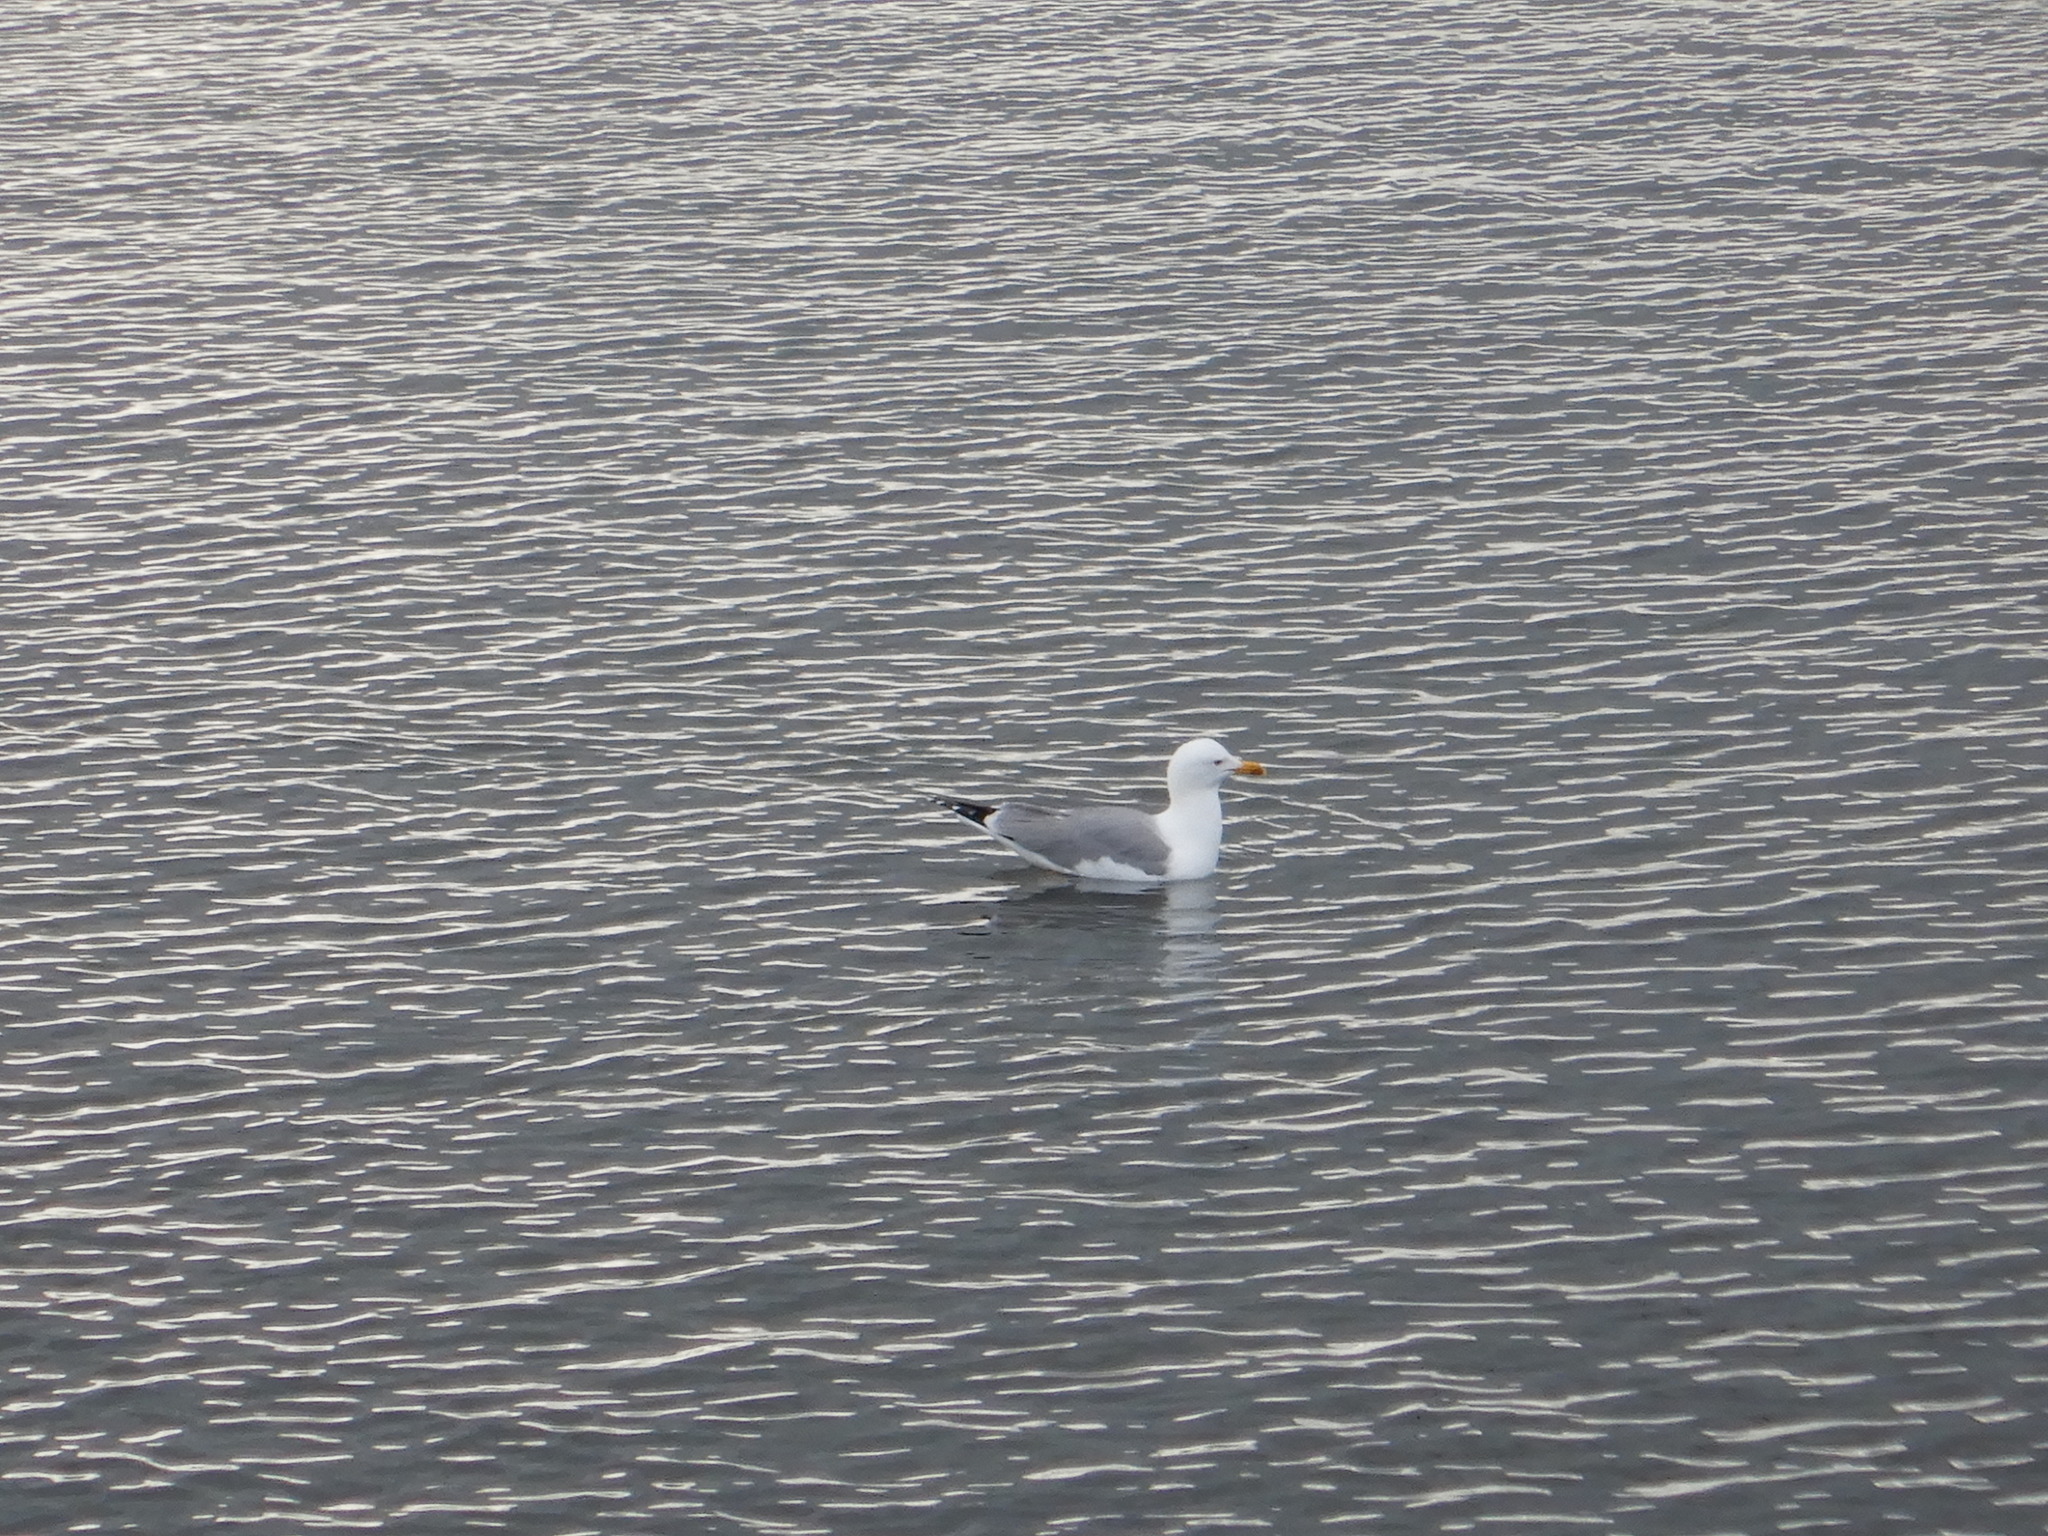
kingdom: Animalia
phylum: Chordata
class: Aves
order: Charadriiformes
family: Laridae
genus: Larus
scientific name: Larus michahellis
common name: Yellow-legged gull
